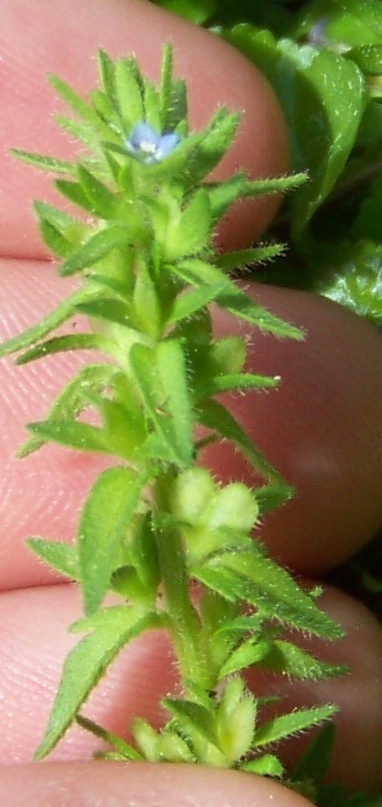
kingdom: Plantae
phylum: Tracheophyta
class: Magnoliopsida
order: Lamiales
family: Plantaginaceae
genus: Veronica
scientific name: Veronica arvensis
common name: Corn speedwell
